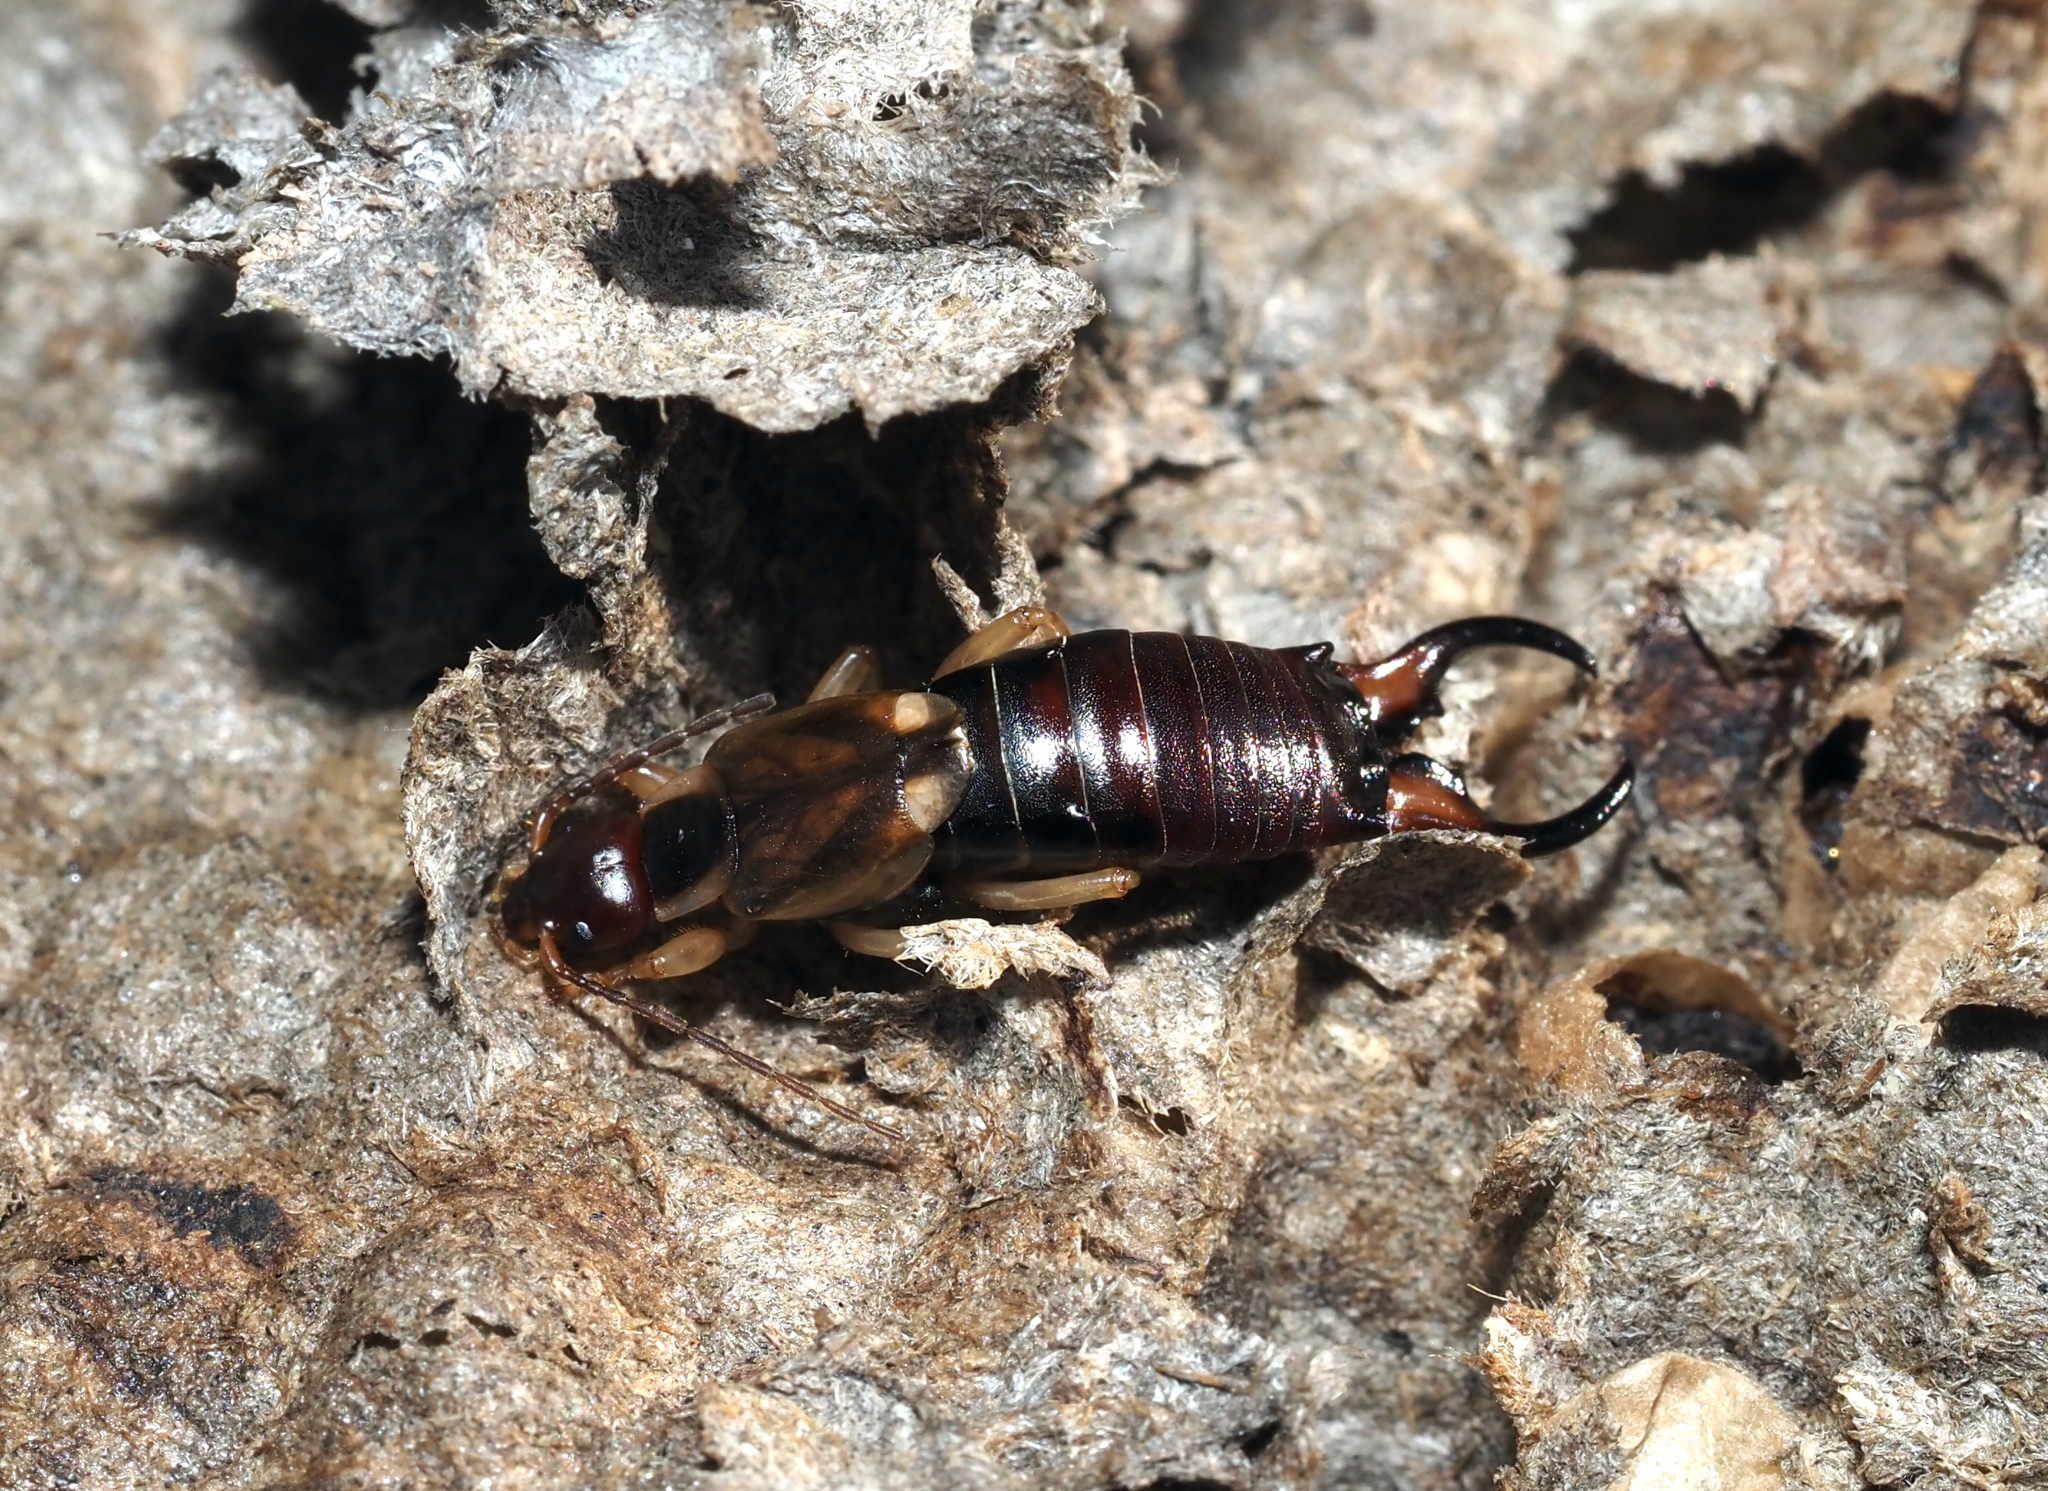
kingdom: Animalia
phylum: Arthropoda
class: Insecta
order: Dermaptera
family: Forficulidae
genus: Forficula
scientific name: Forficula
